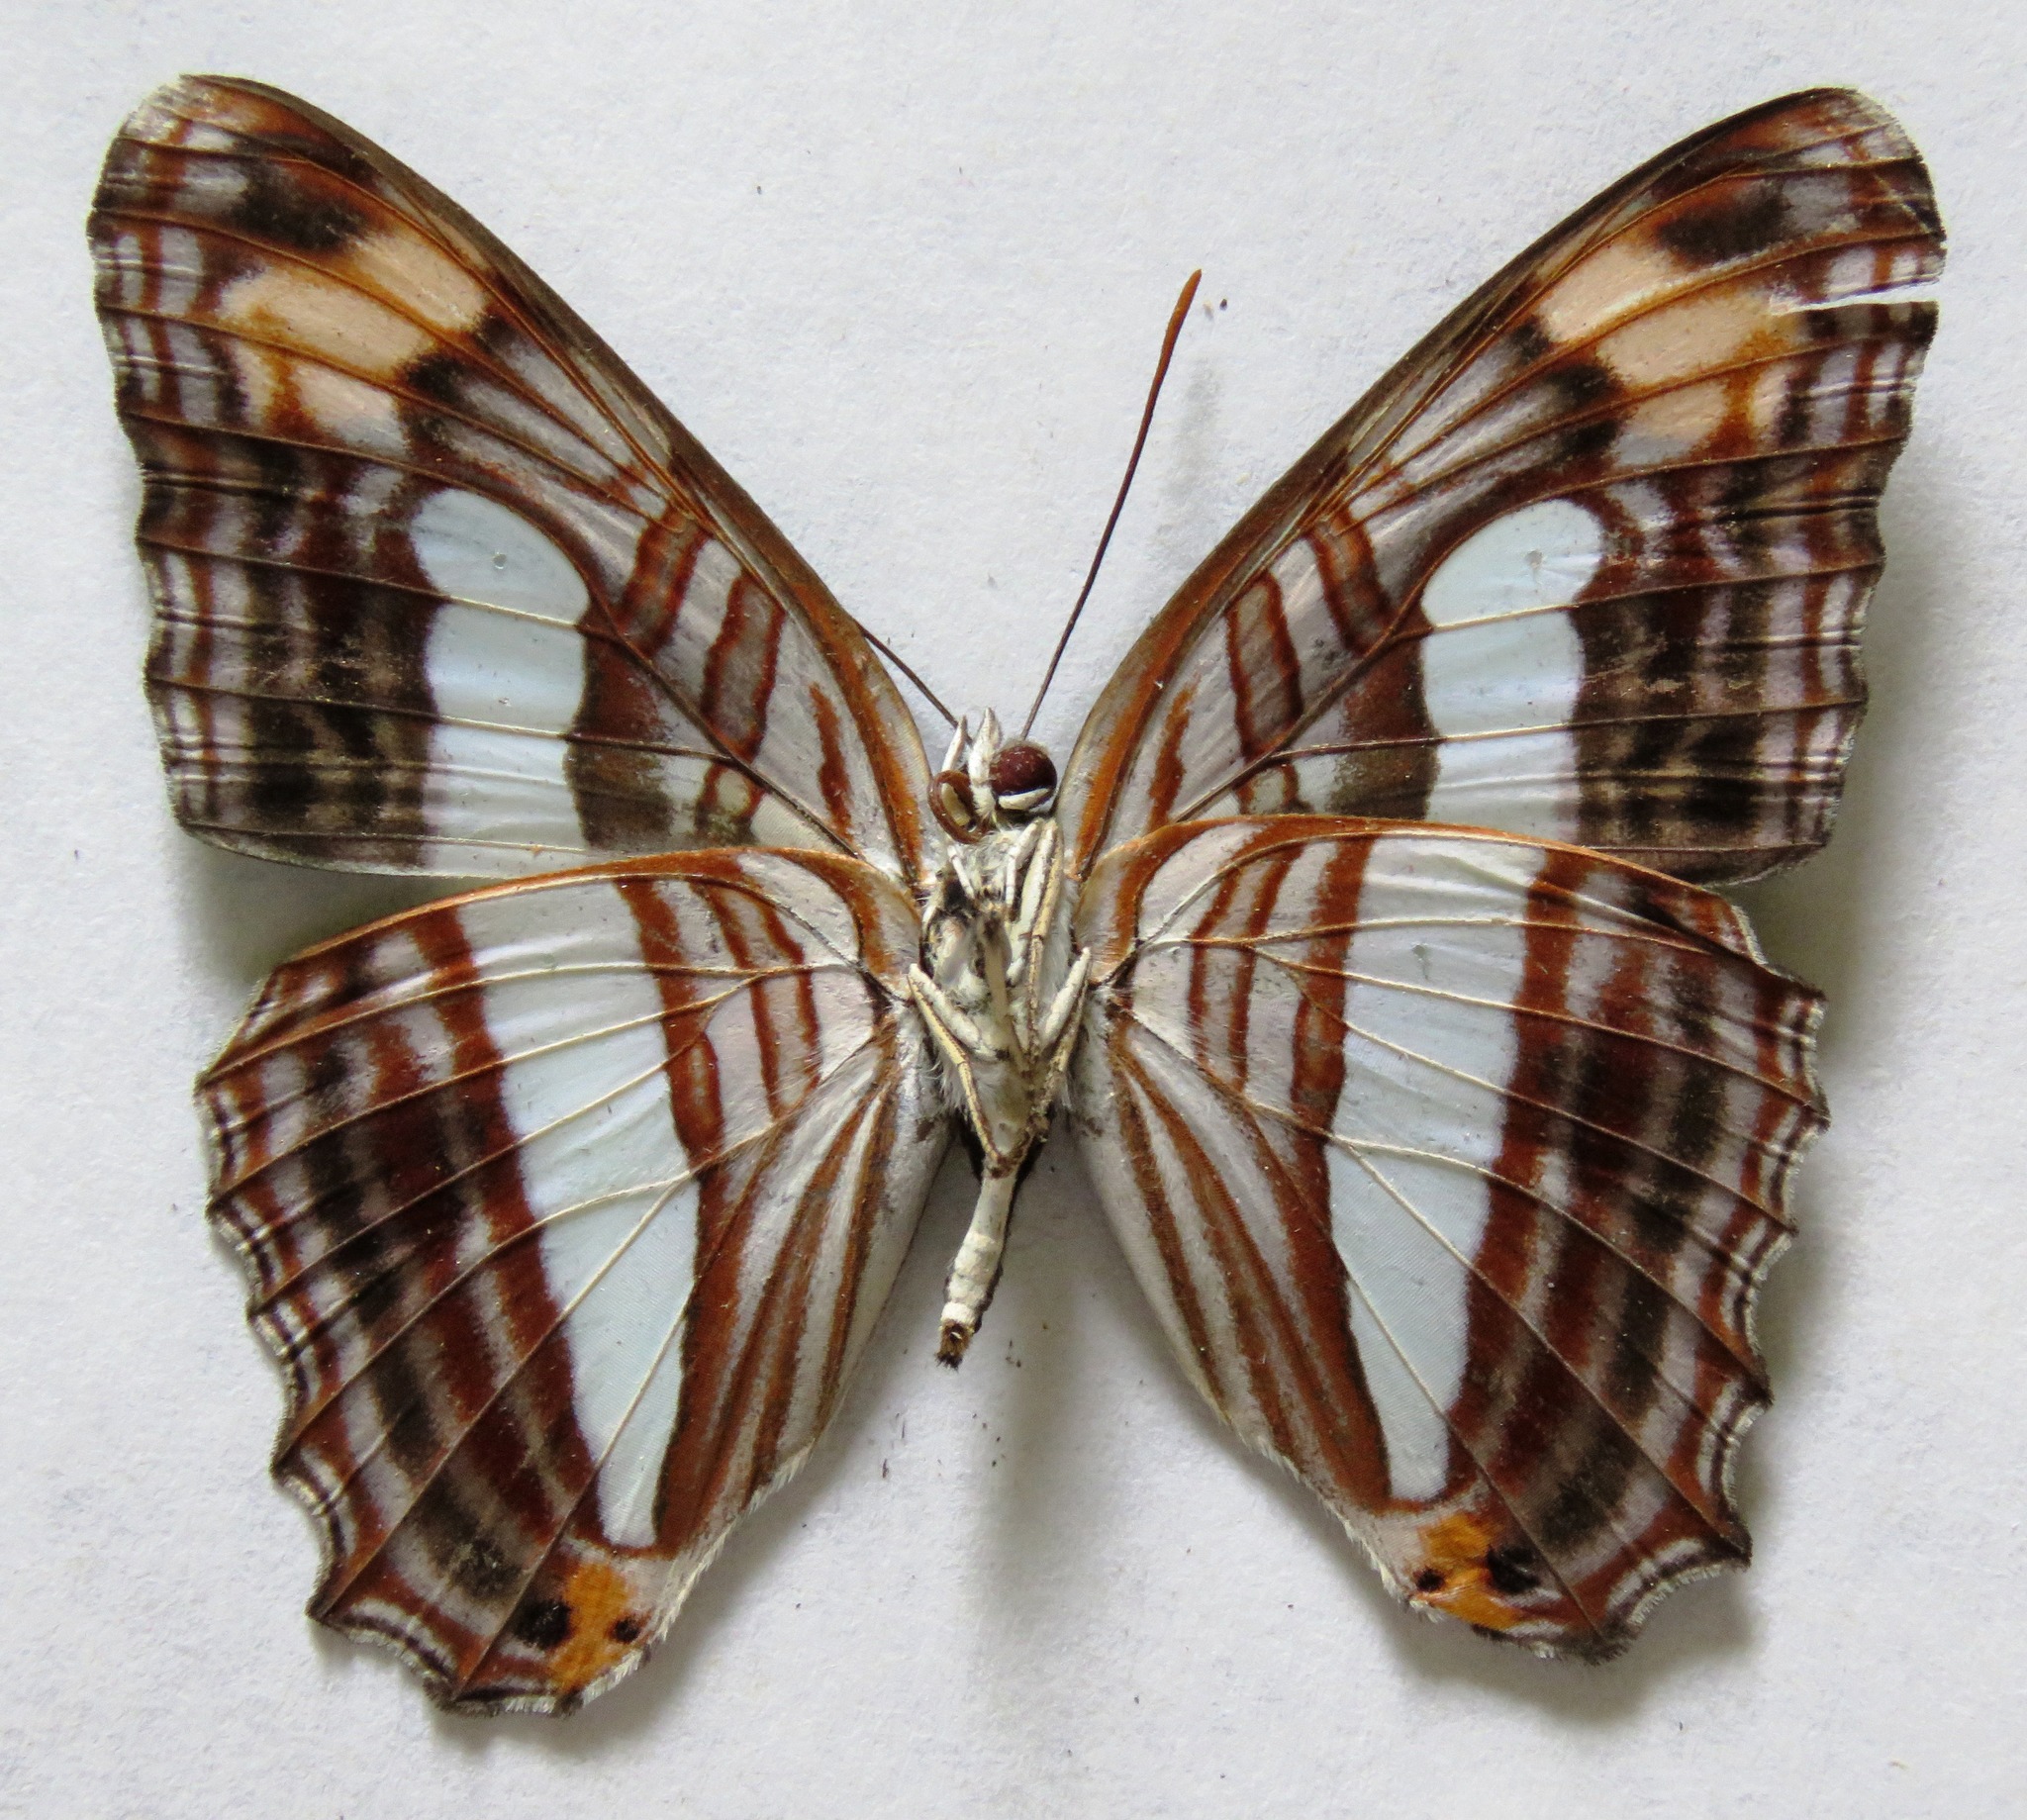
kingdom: Animalia
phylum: Arthropoda
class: Insecta
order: Lepidoptera
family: Nymphalidae
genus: Limenitis
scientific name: Limenitis iphiclus
